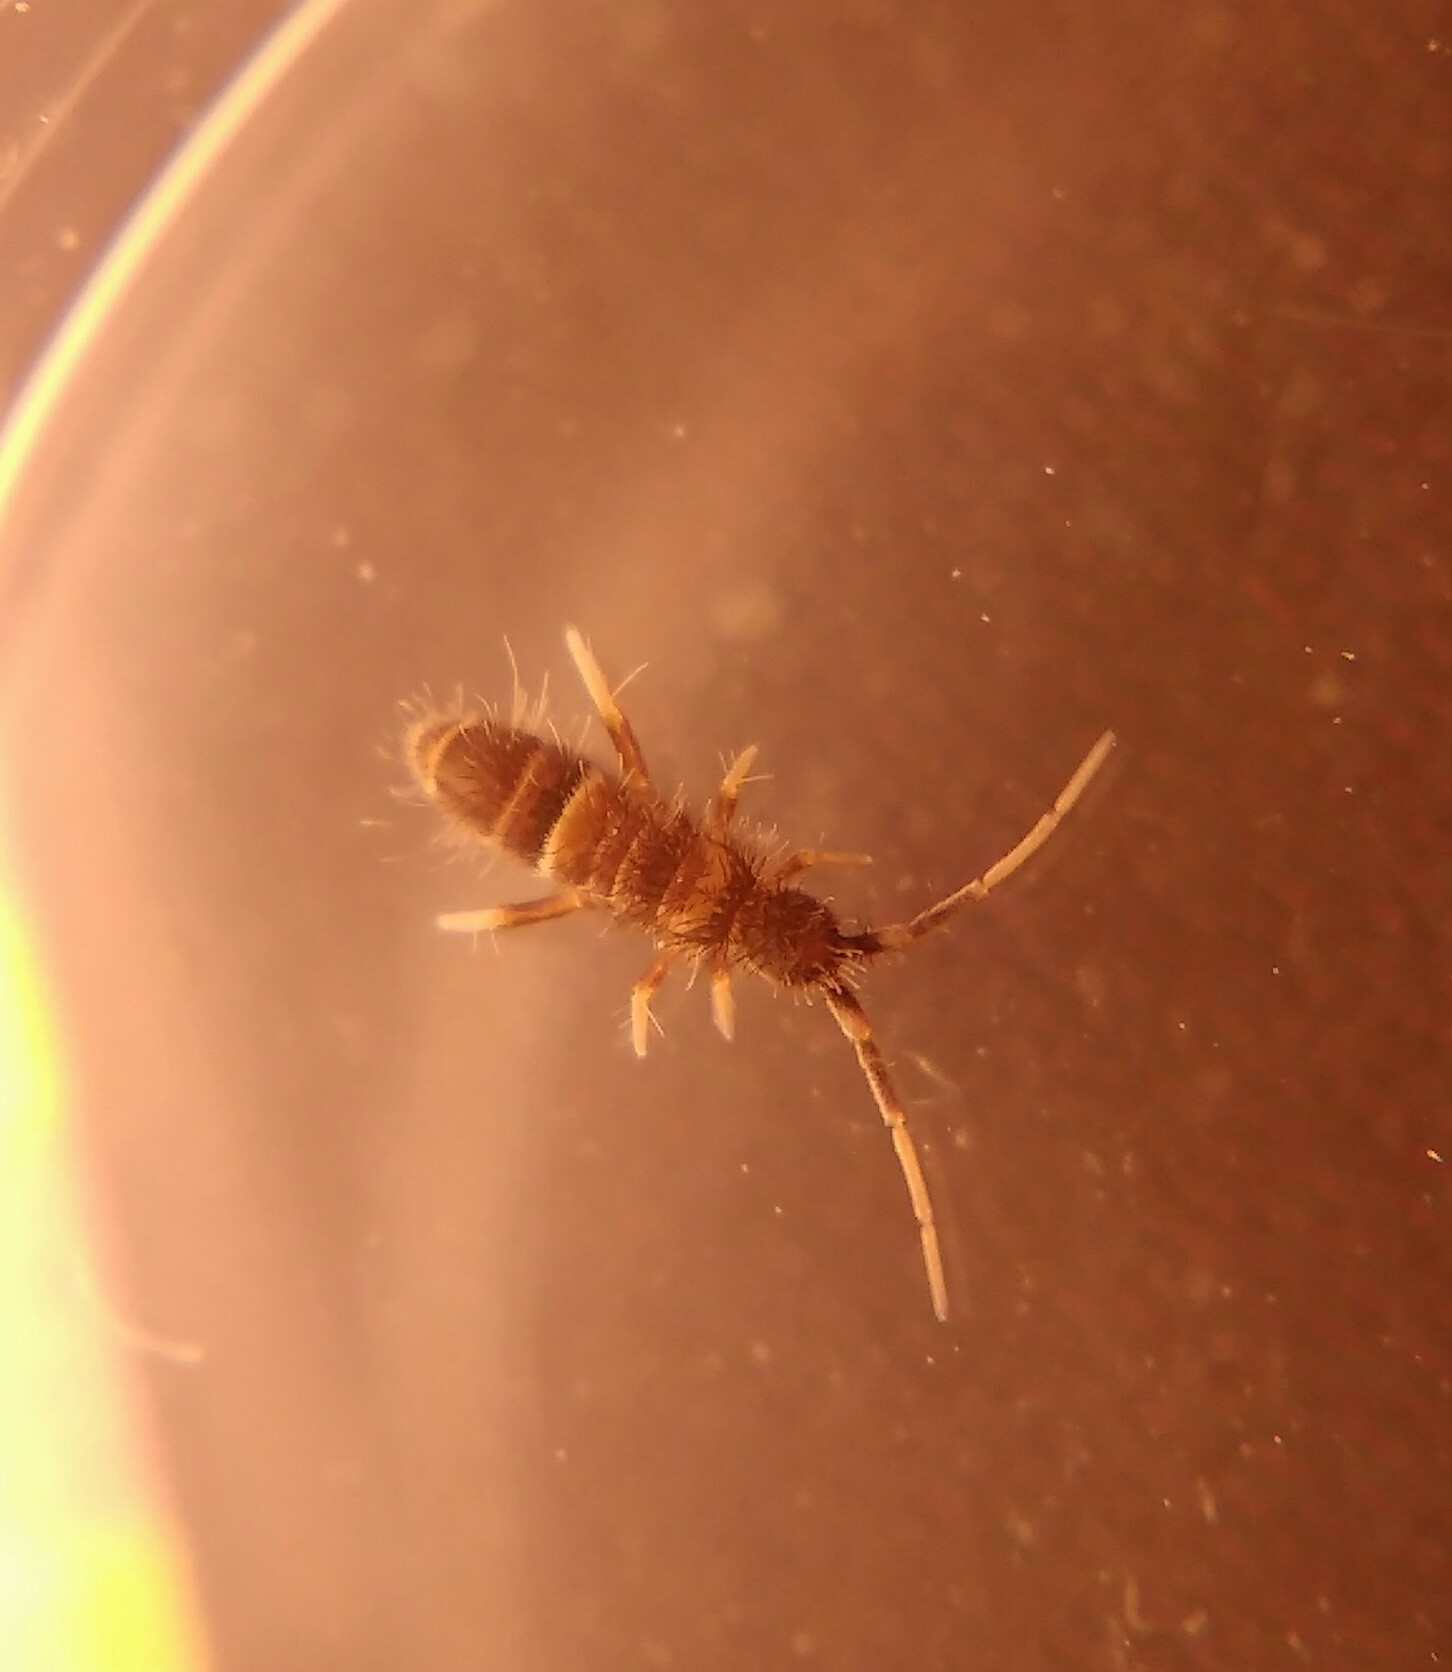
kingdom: Animalia
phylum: Arthropoda
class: Collembola
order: Entomobryomorpha
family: Orchesellidae
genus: Orchesella
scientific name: Orchesella cincta
